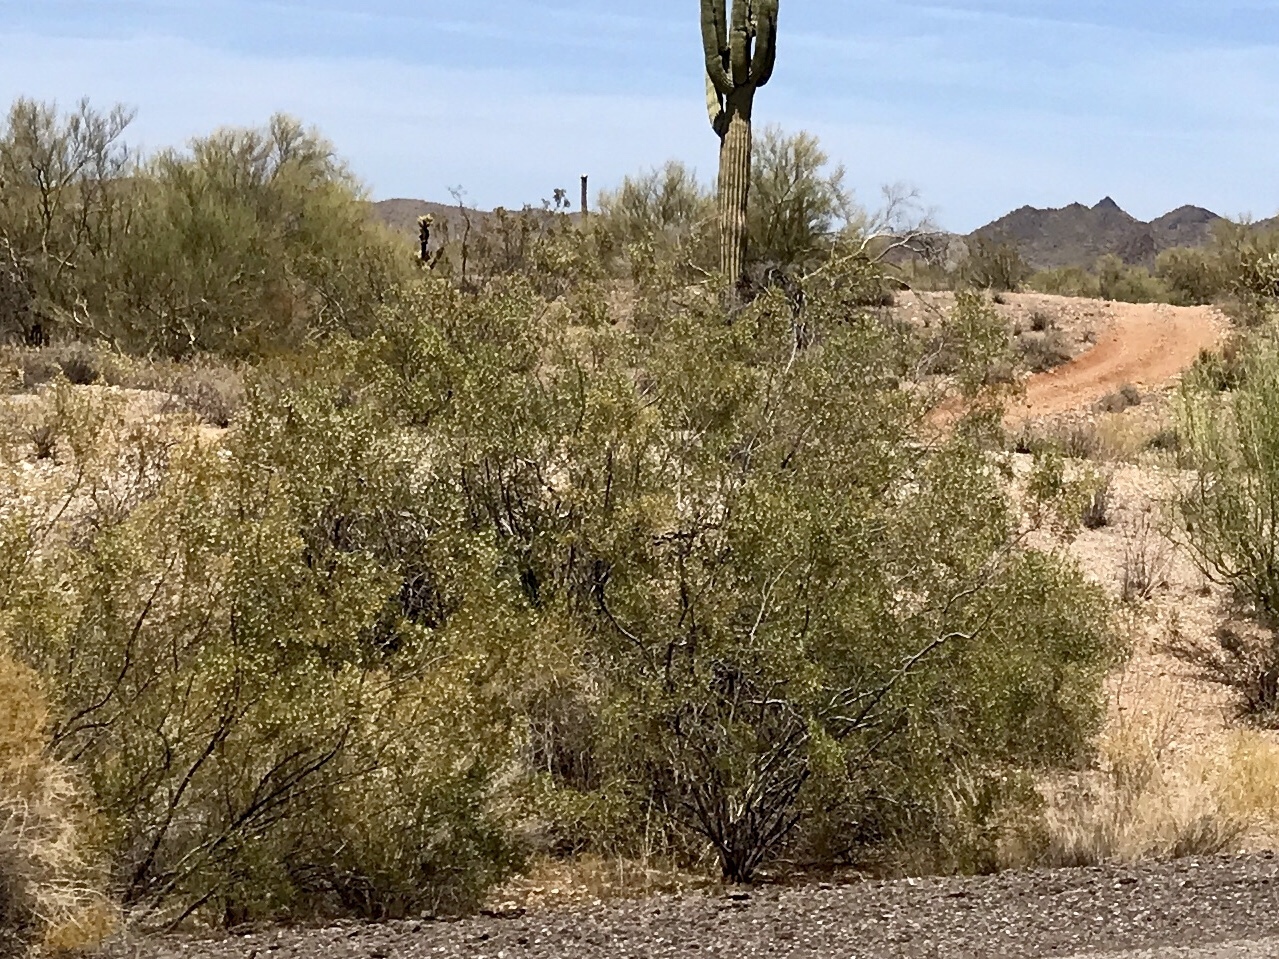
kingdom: Plantae
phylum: Tracheophyta
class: Magnoliopsida
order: Zygophyllales
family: Zygophyllaceae
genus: Larrea
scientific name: Larrea tridentata
